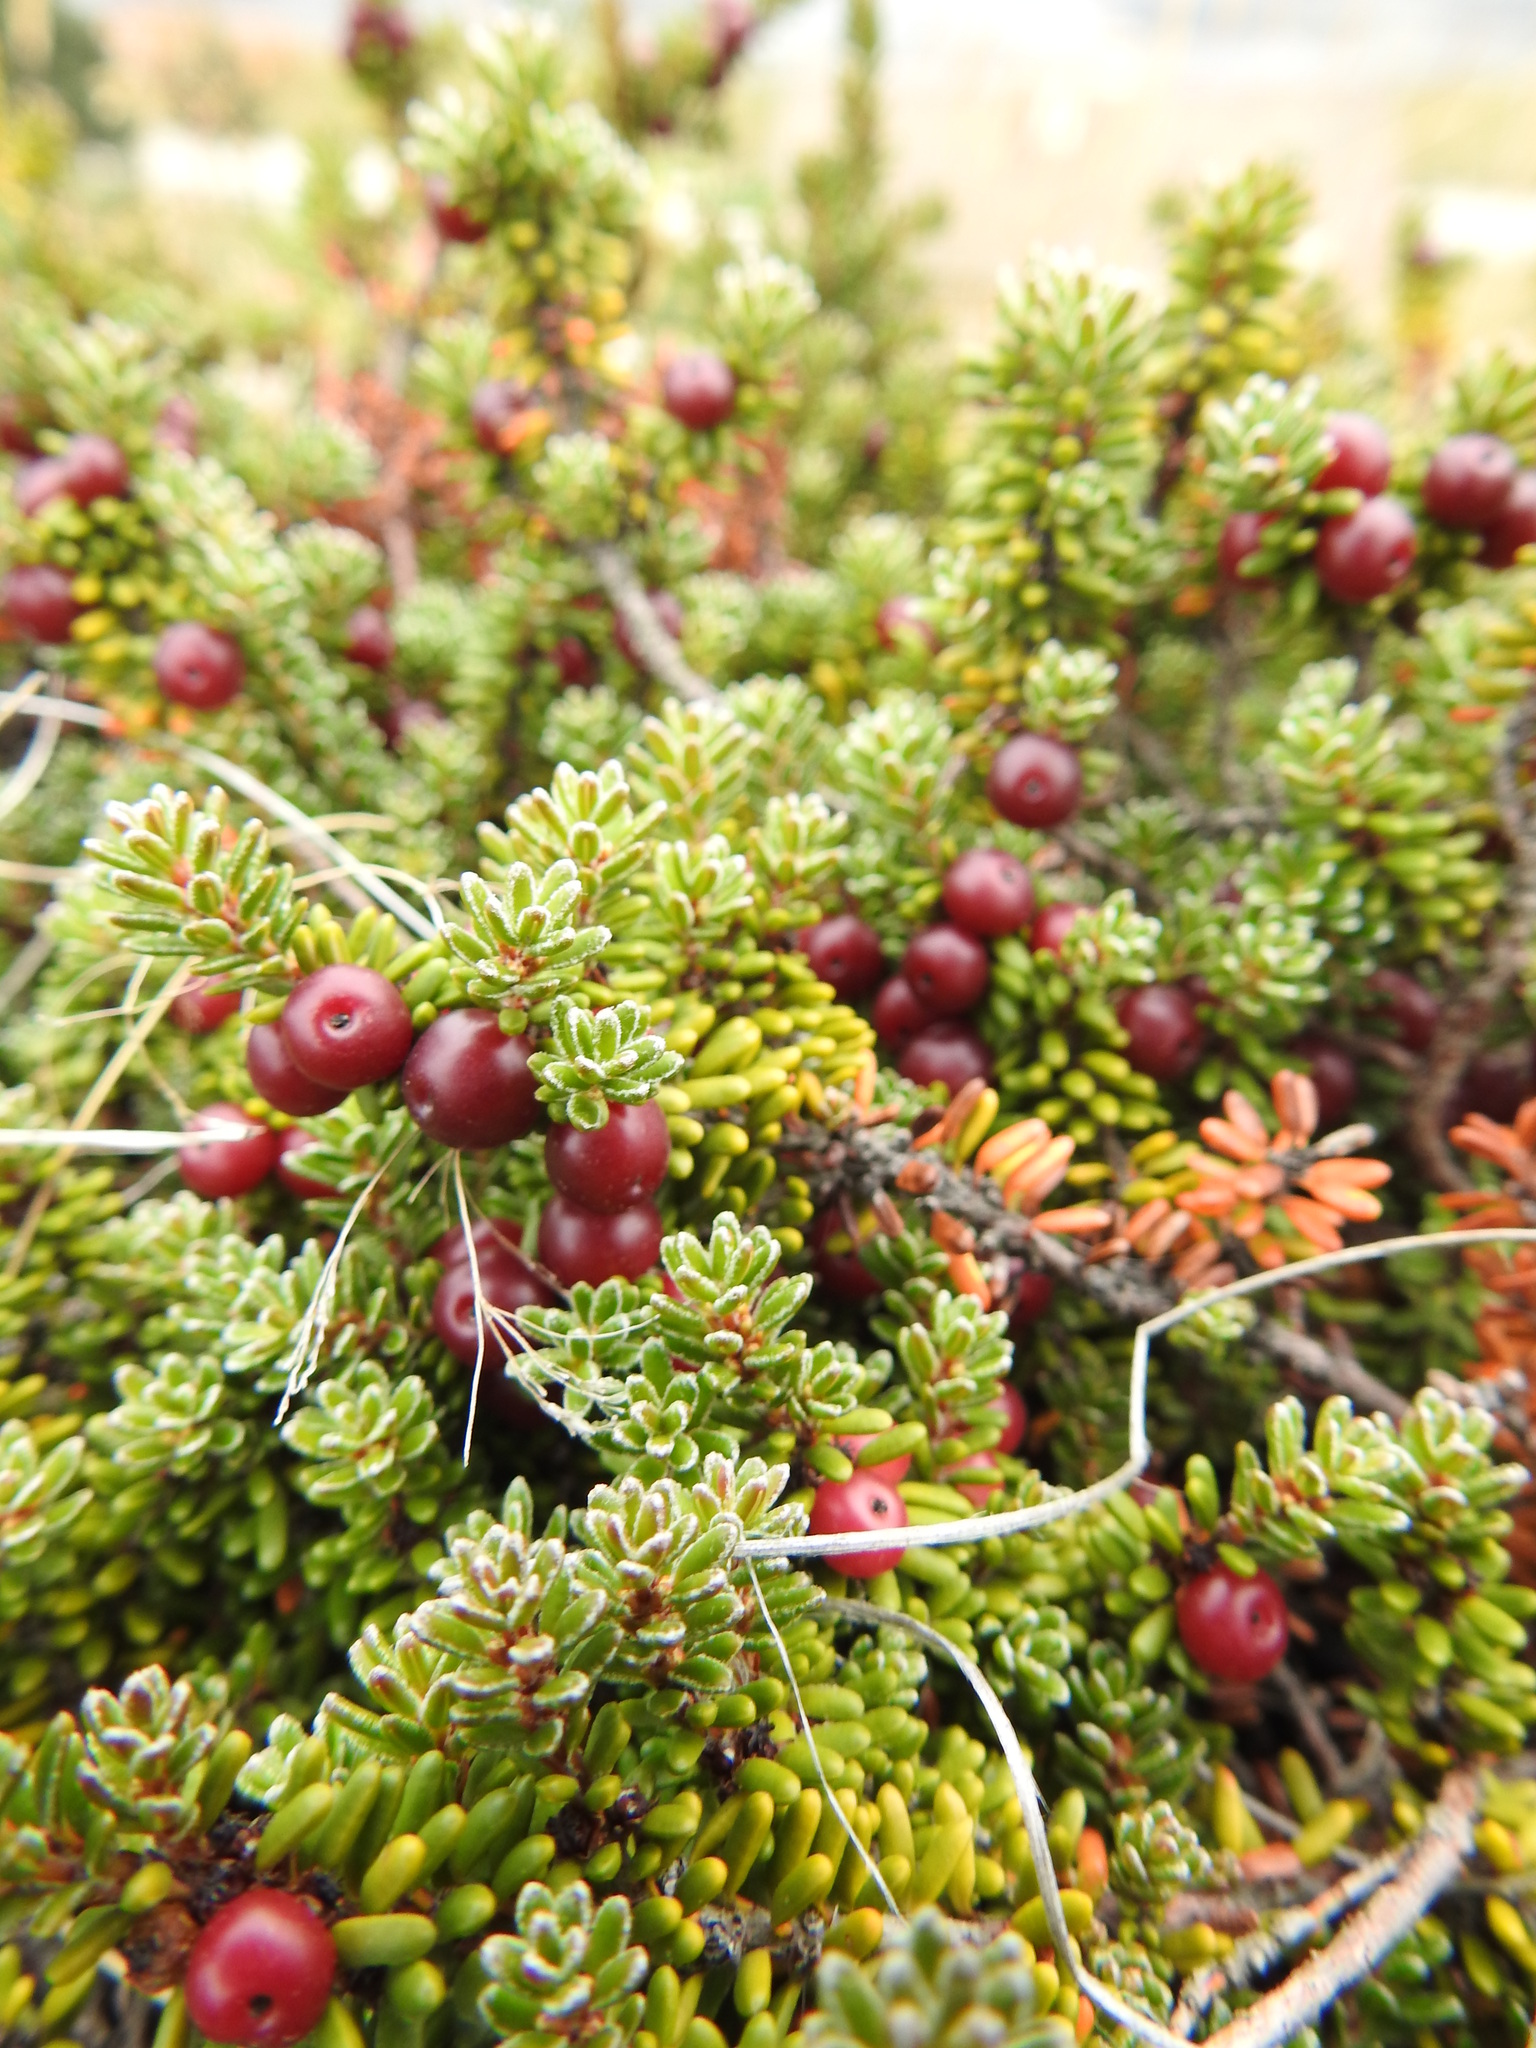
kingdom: Plantae
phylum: Tracheophyta
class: Magnoliopsida
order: Ericales
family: Ericaceae
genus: Empetrum
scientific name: Empetrum rubrum
